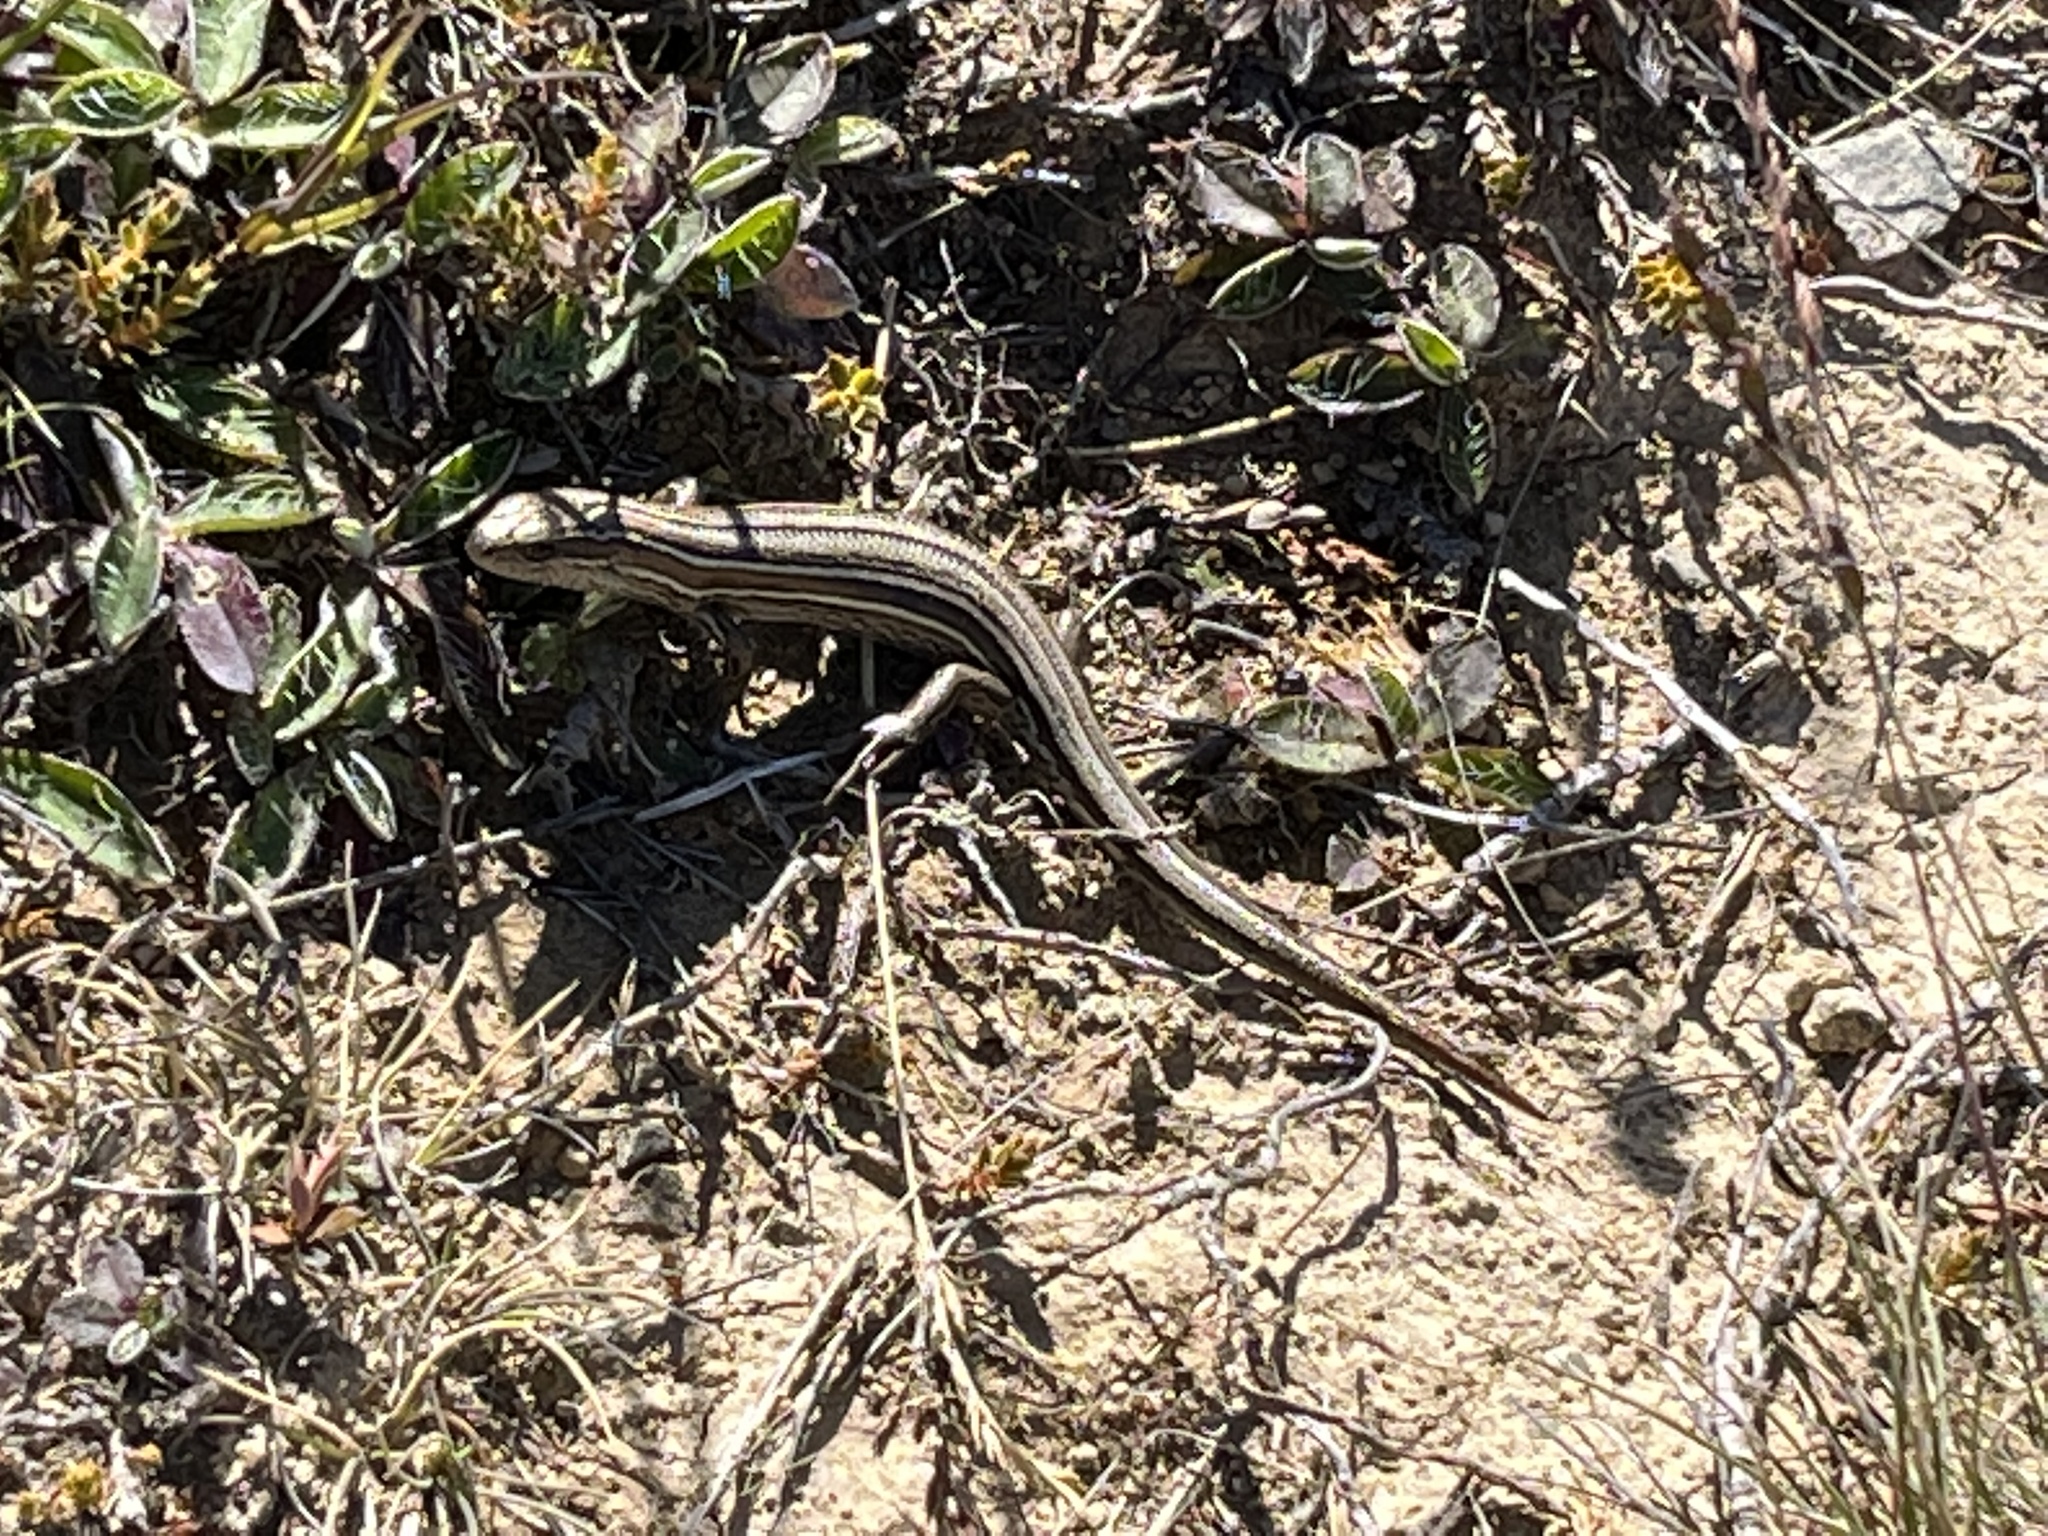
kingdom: Animalia
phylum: Chordata
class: Squamata
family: Scincidae
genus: Oligosoma
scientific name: Oligosoma maccanni
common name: Mccann’s skink
